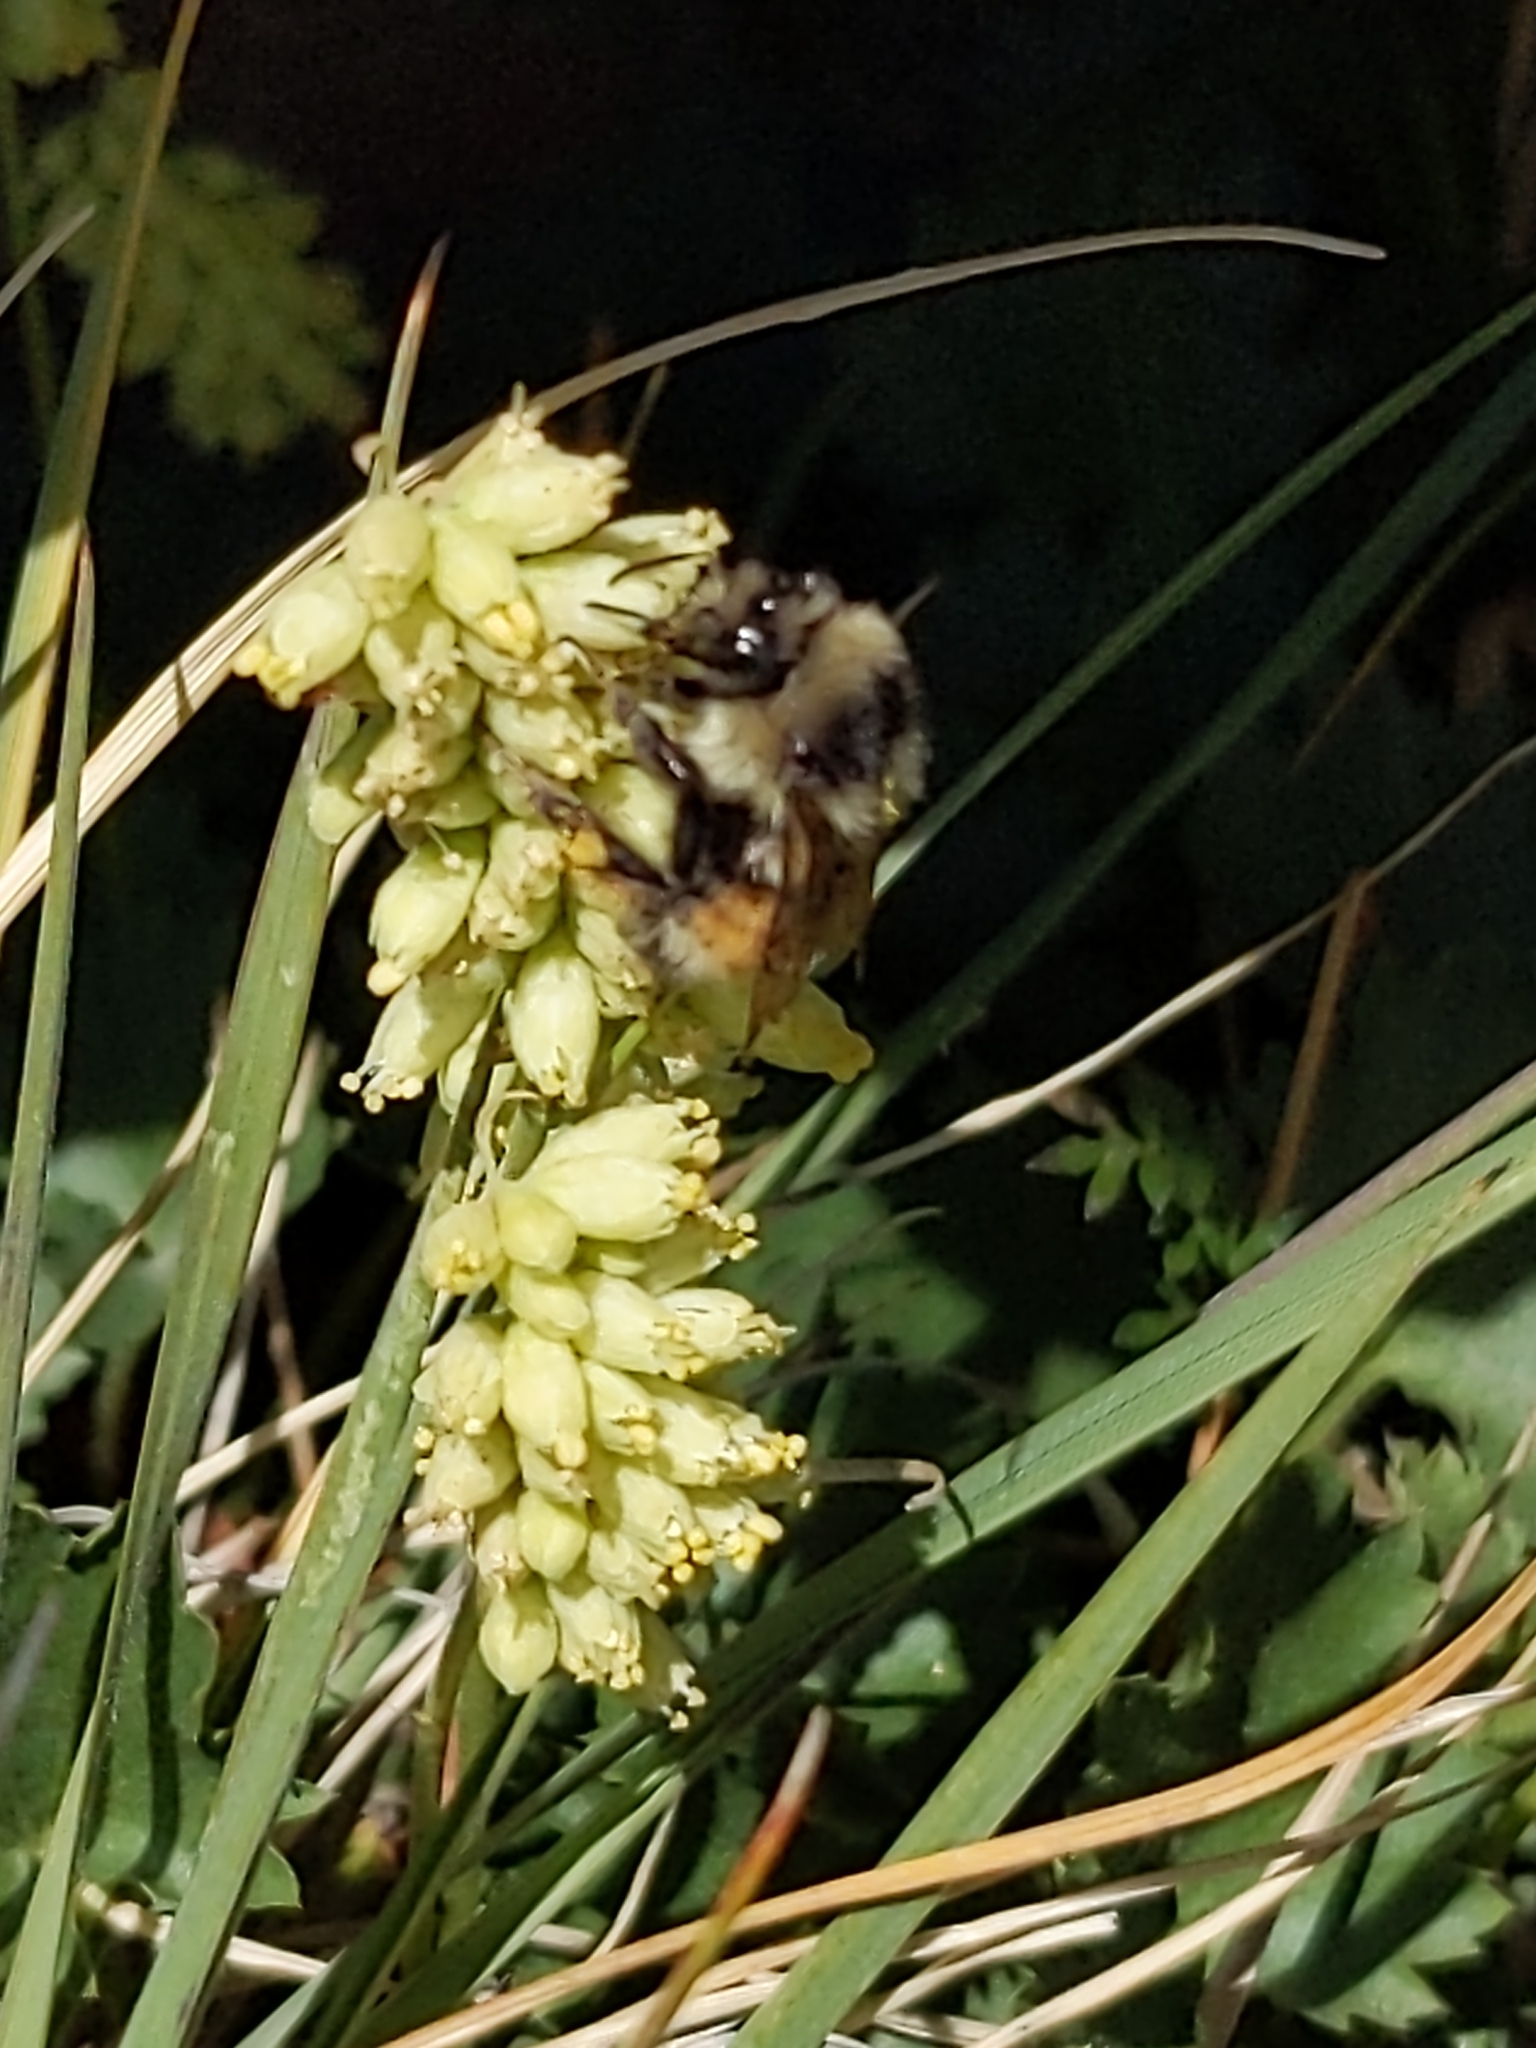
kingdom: Animalia
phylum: Arthropoda
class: Insecta
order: Hymenoptera
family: Apidae
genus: Bombus
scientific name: Bombus bifarius
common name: Two form bumble bee
